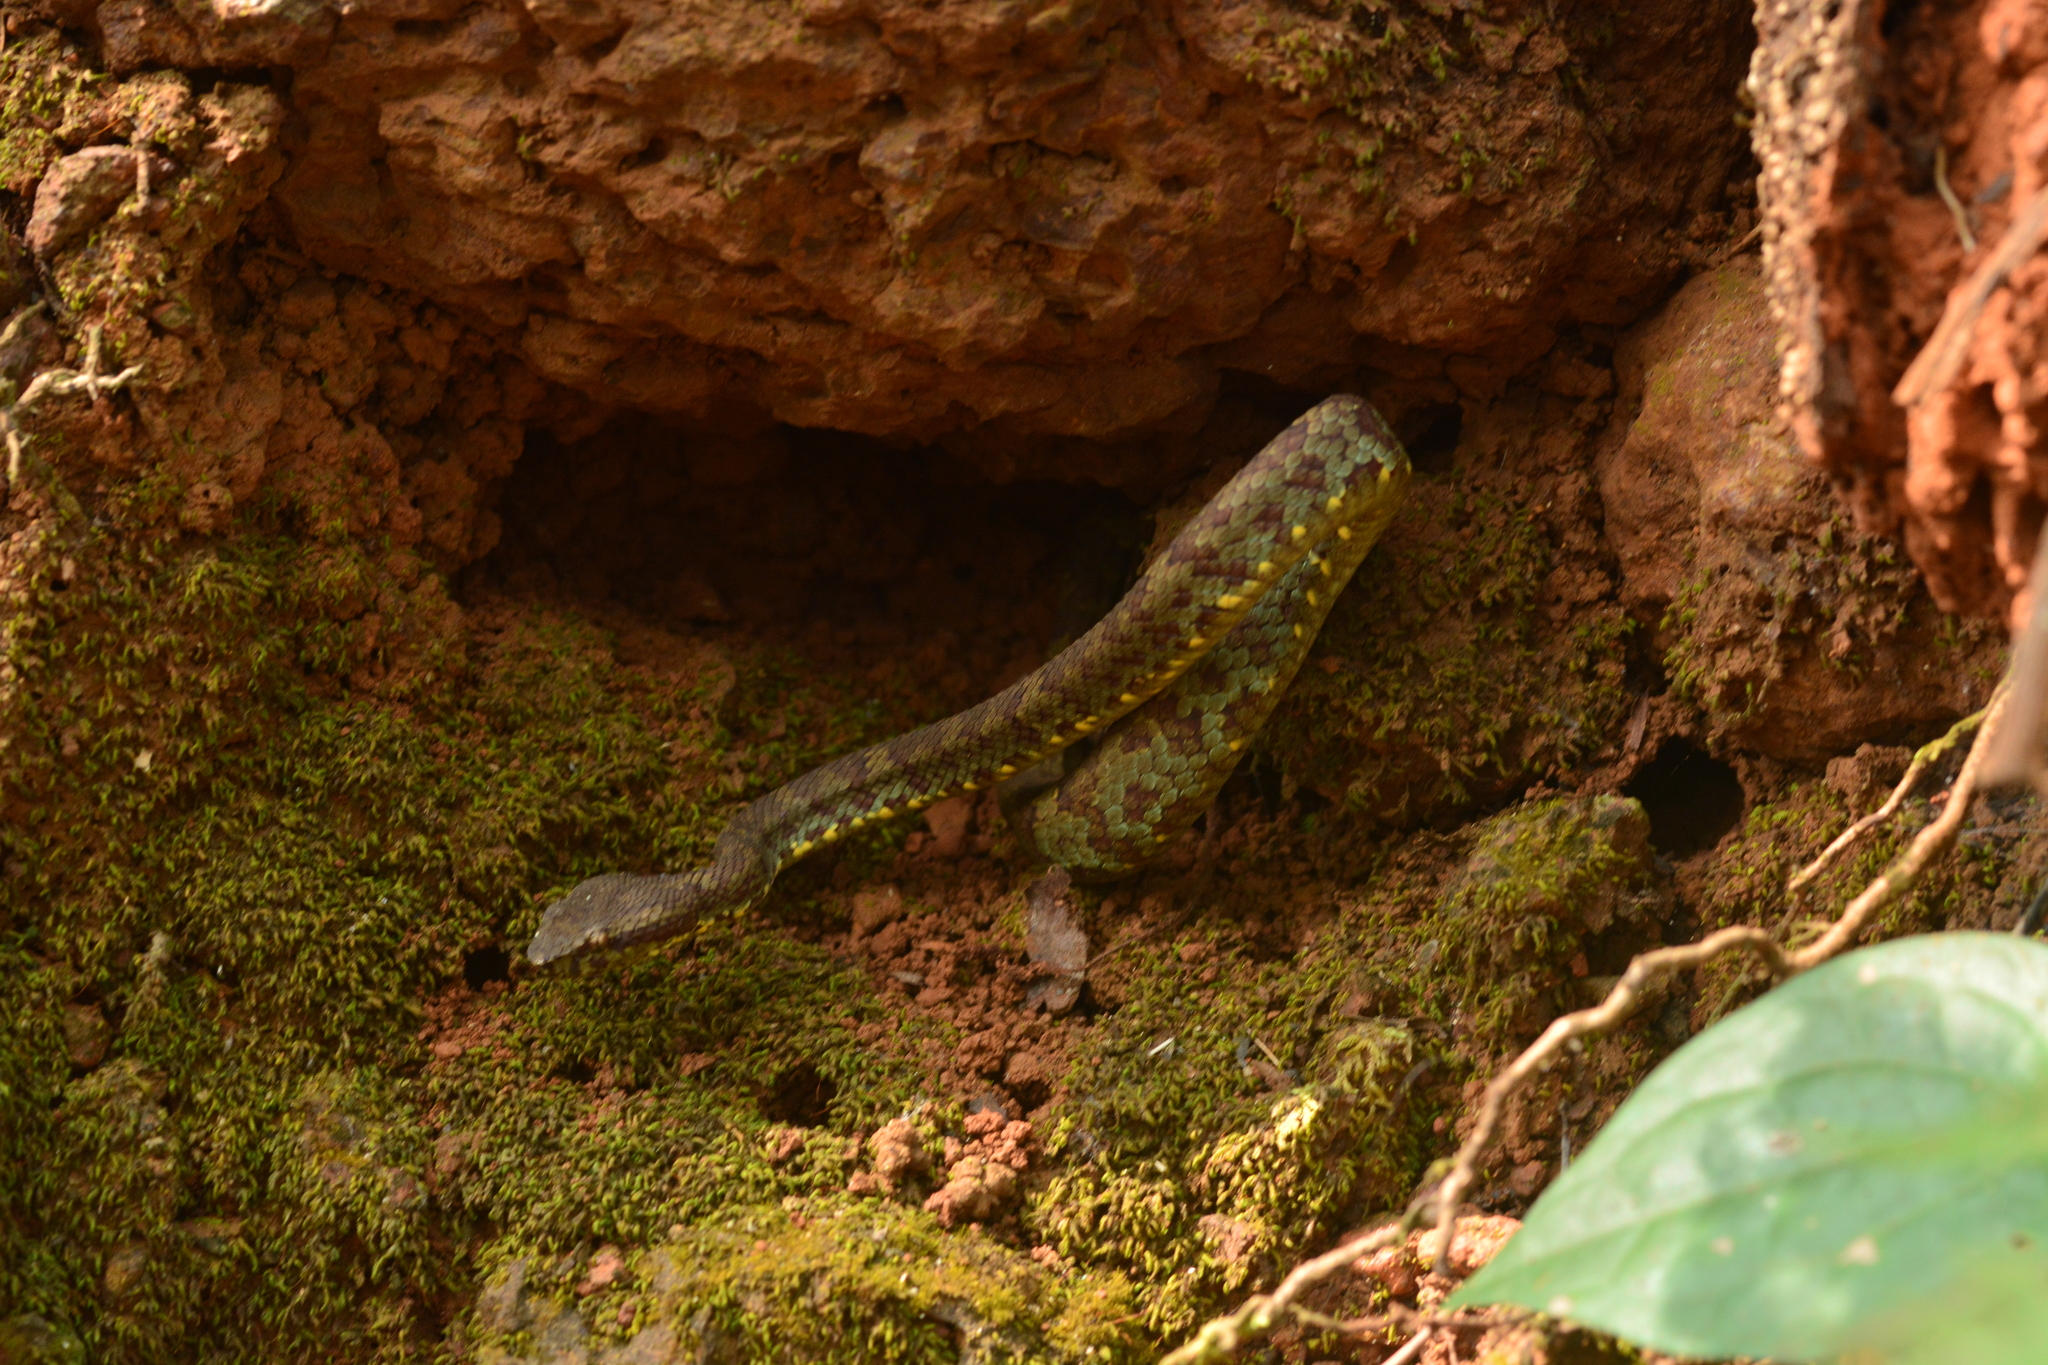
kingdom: Animalia
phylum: Chordata
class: Squamata
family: Viperidae
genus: Craspedocephalus
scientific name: Craspedocephalus malabaricus
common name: Malabarian pit viper
